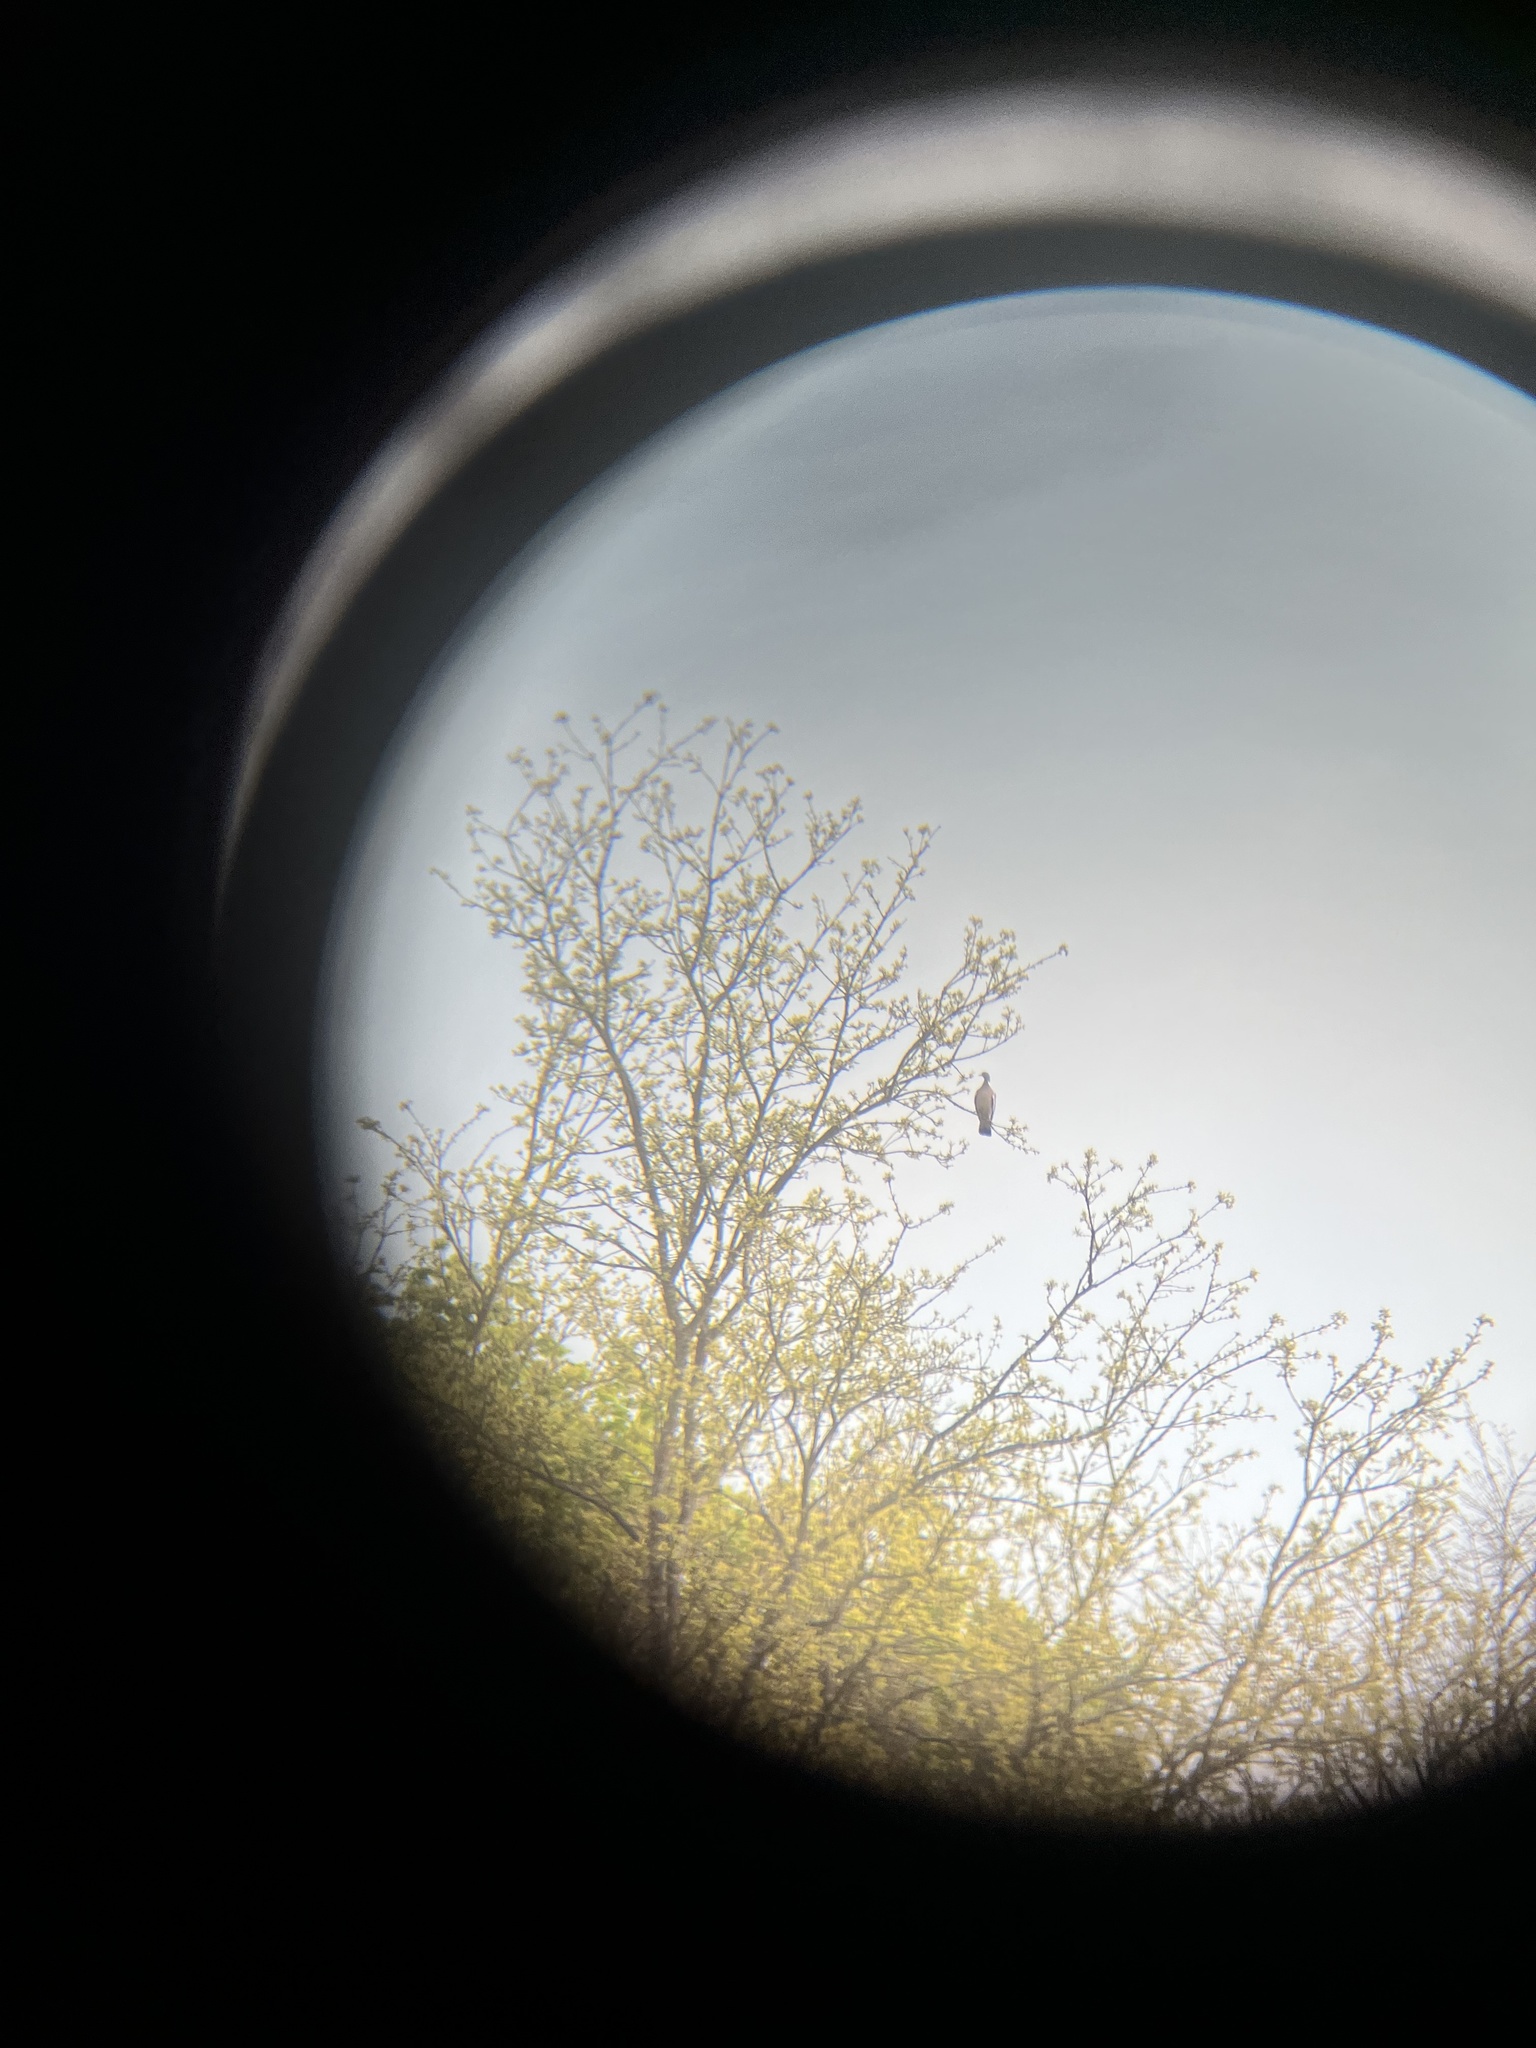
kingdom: Animalia
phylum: Chordata
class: Aves
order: Columbiformes
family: Columbidae
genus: Columba
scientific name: Columba palumbus
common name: Common wood pigeon
